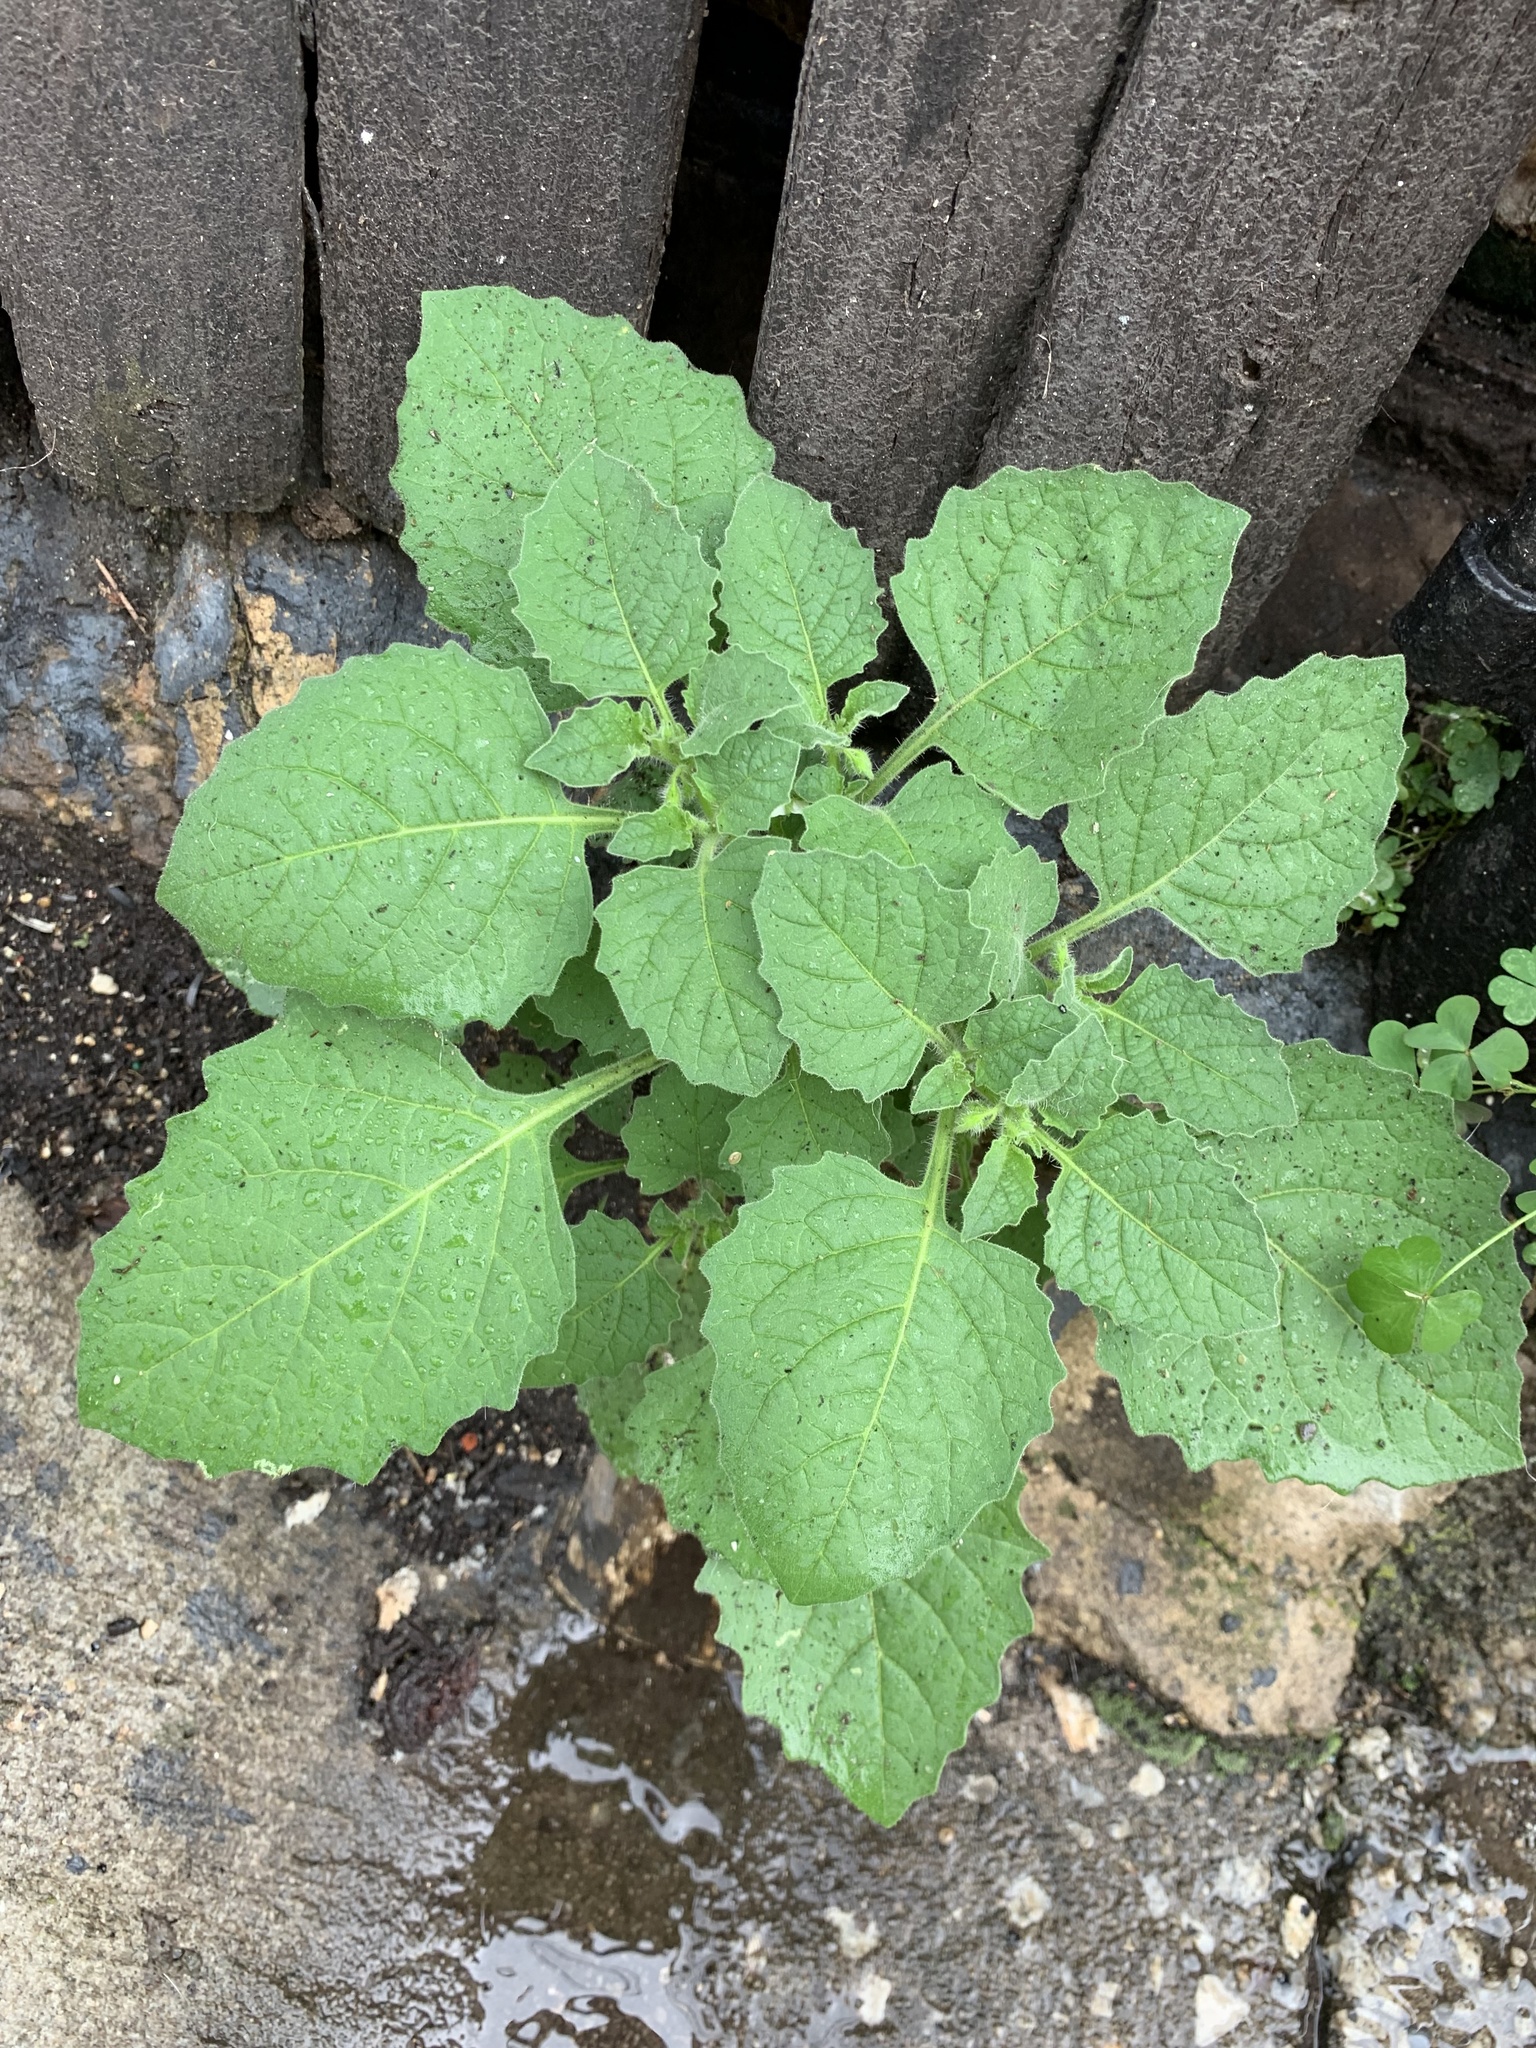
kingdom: Plantae
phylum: Tracheophyta
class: Magnoliopsida
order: Solanales
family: Solanaceae
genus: Solanum
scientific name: Solanum sarrachoides
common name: Leafy-fruited nightshade
